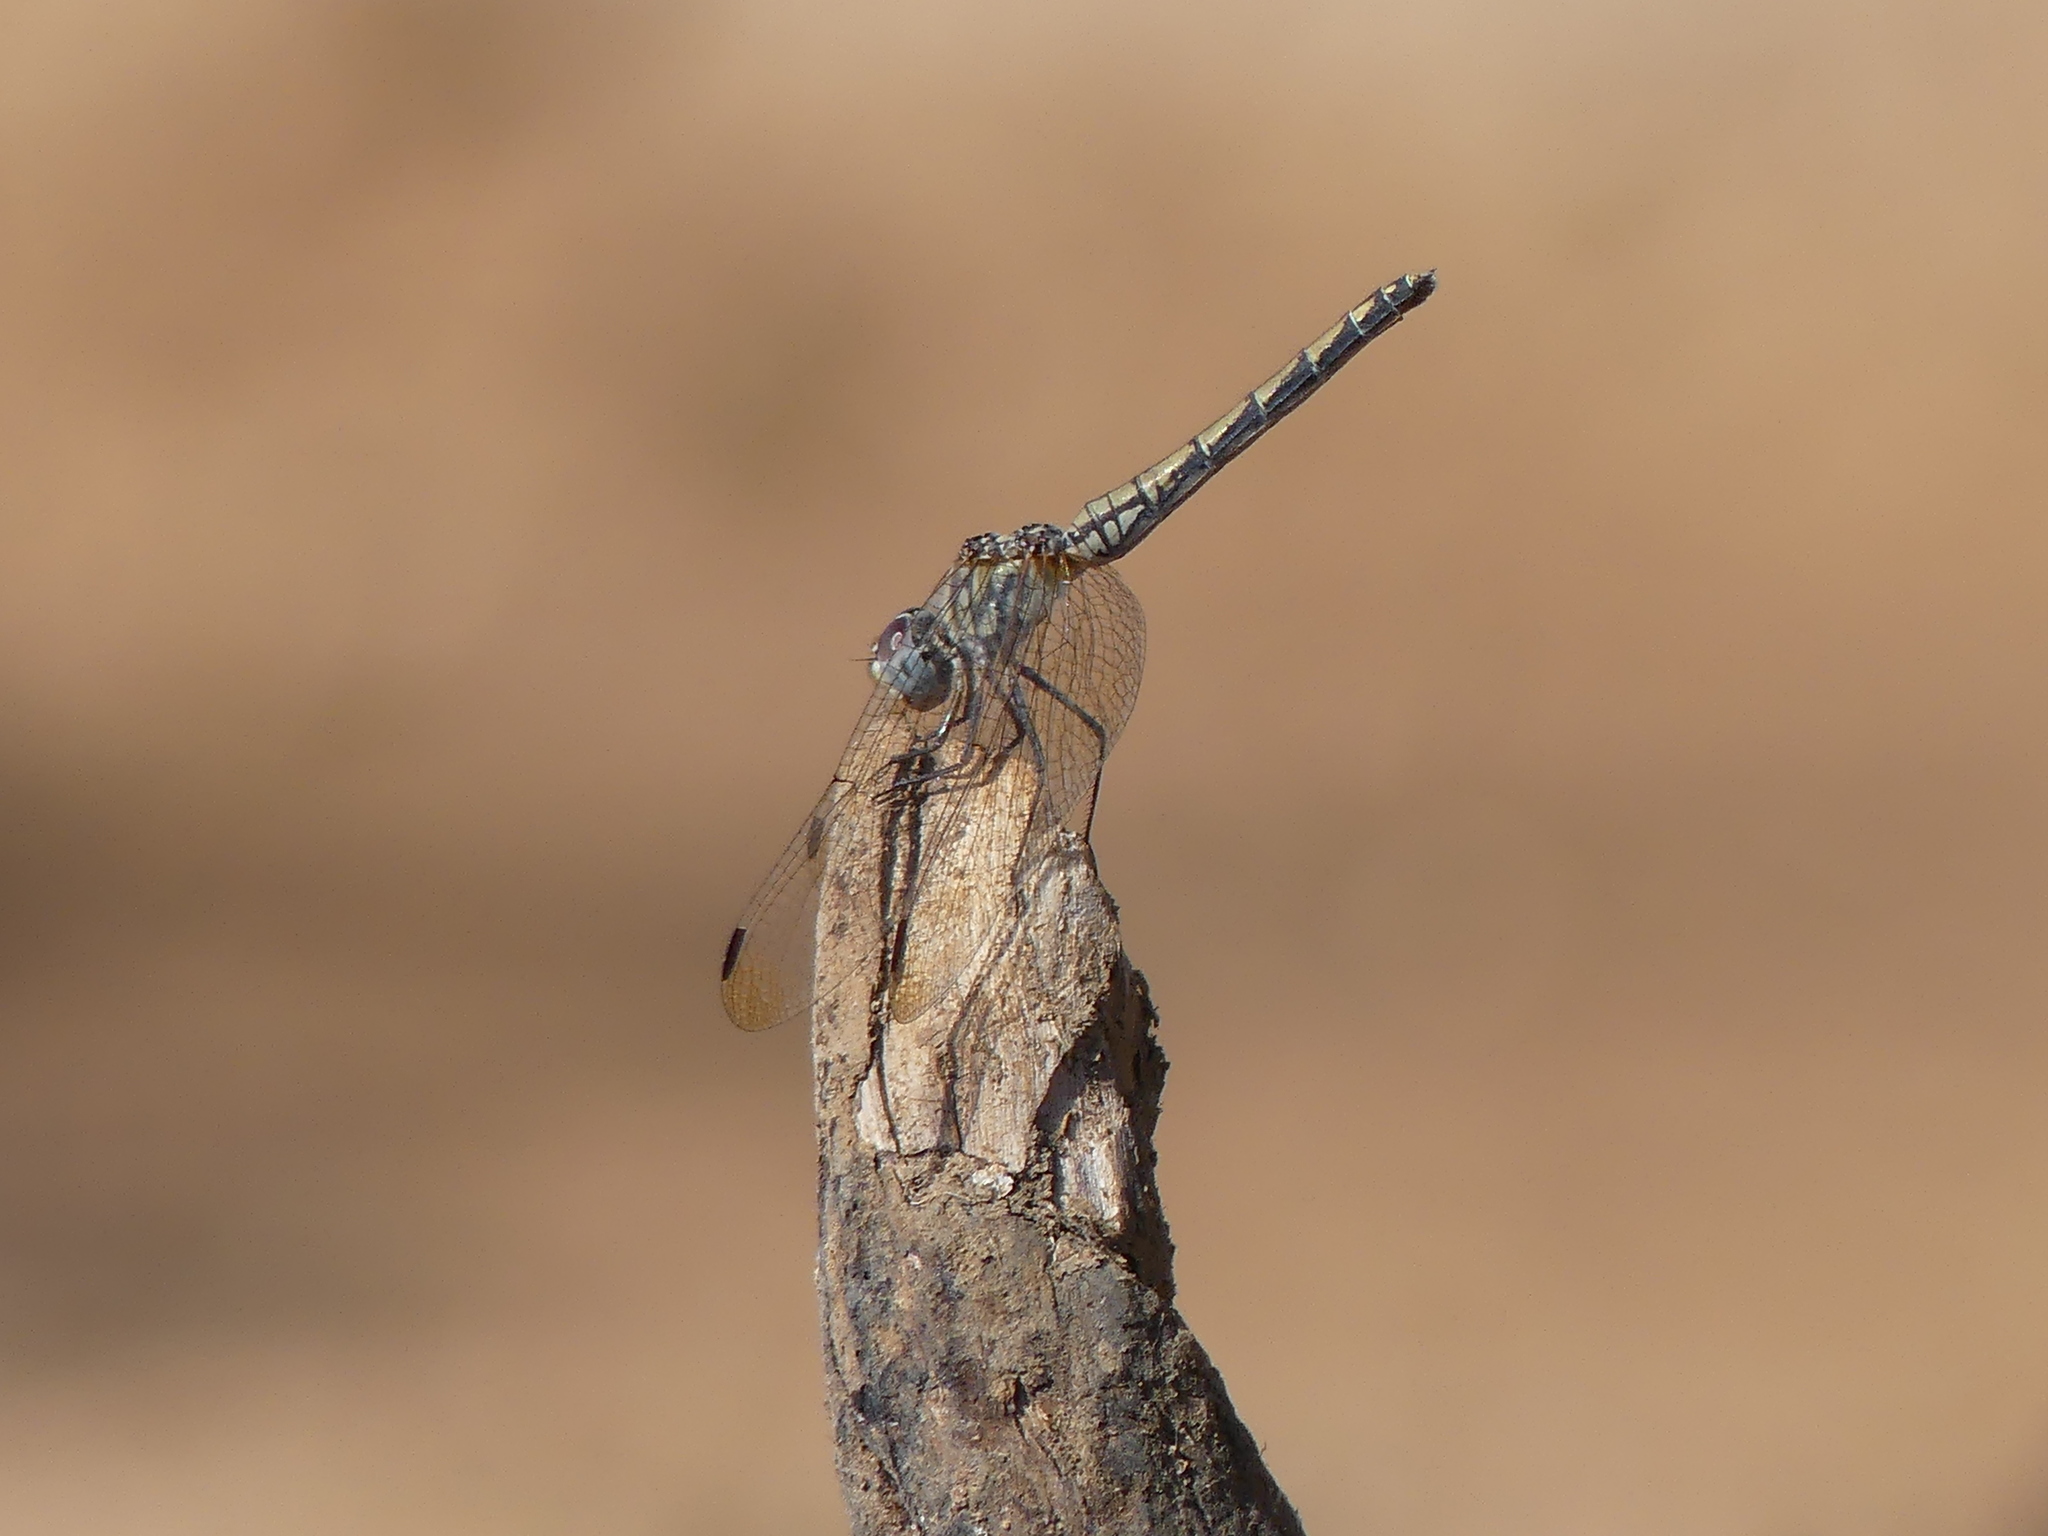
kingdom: Animalia
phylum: Arthropoda
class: Insecta
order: Odonata
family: Libellulidae
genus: Trithemis
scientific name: Trithemis arteriosa
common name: Red-veined dropwing
